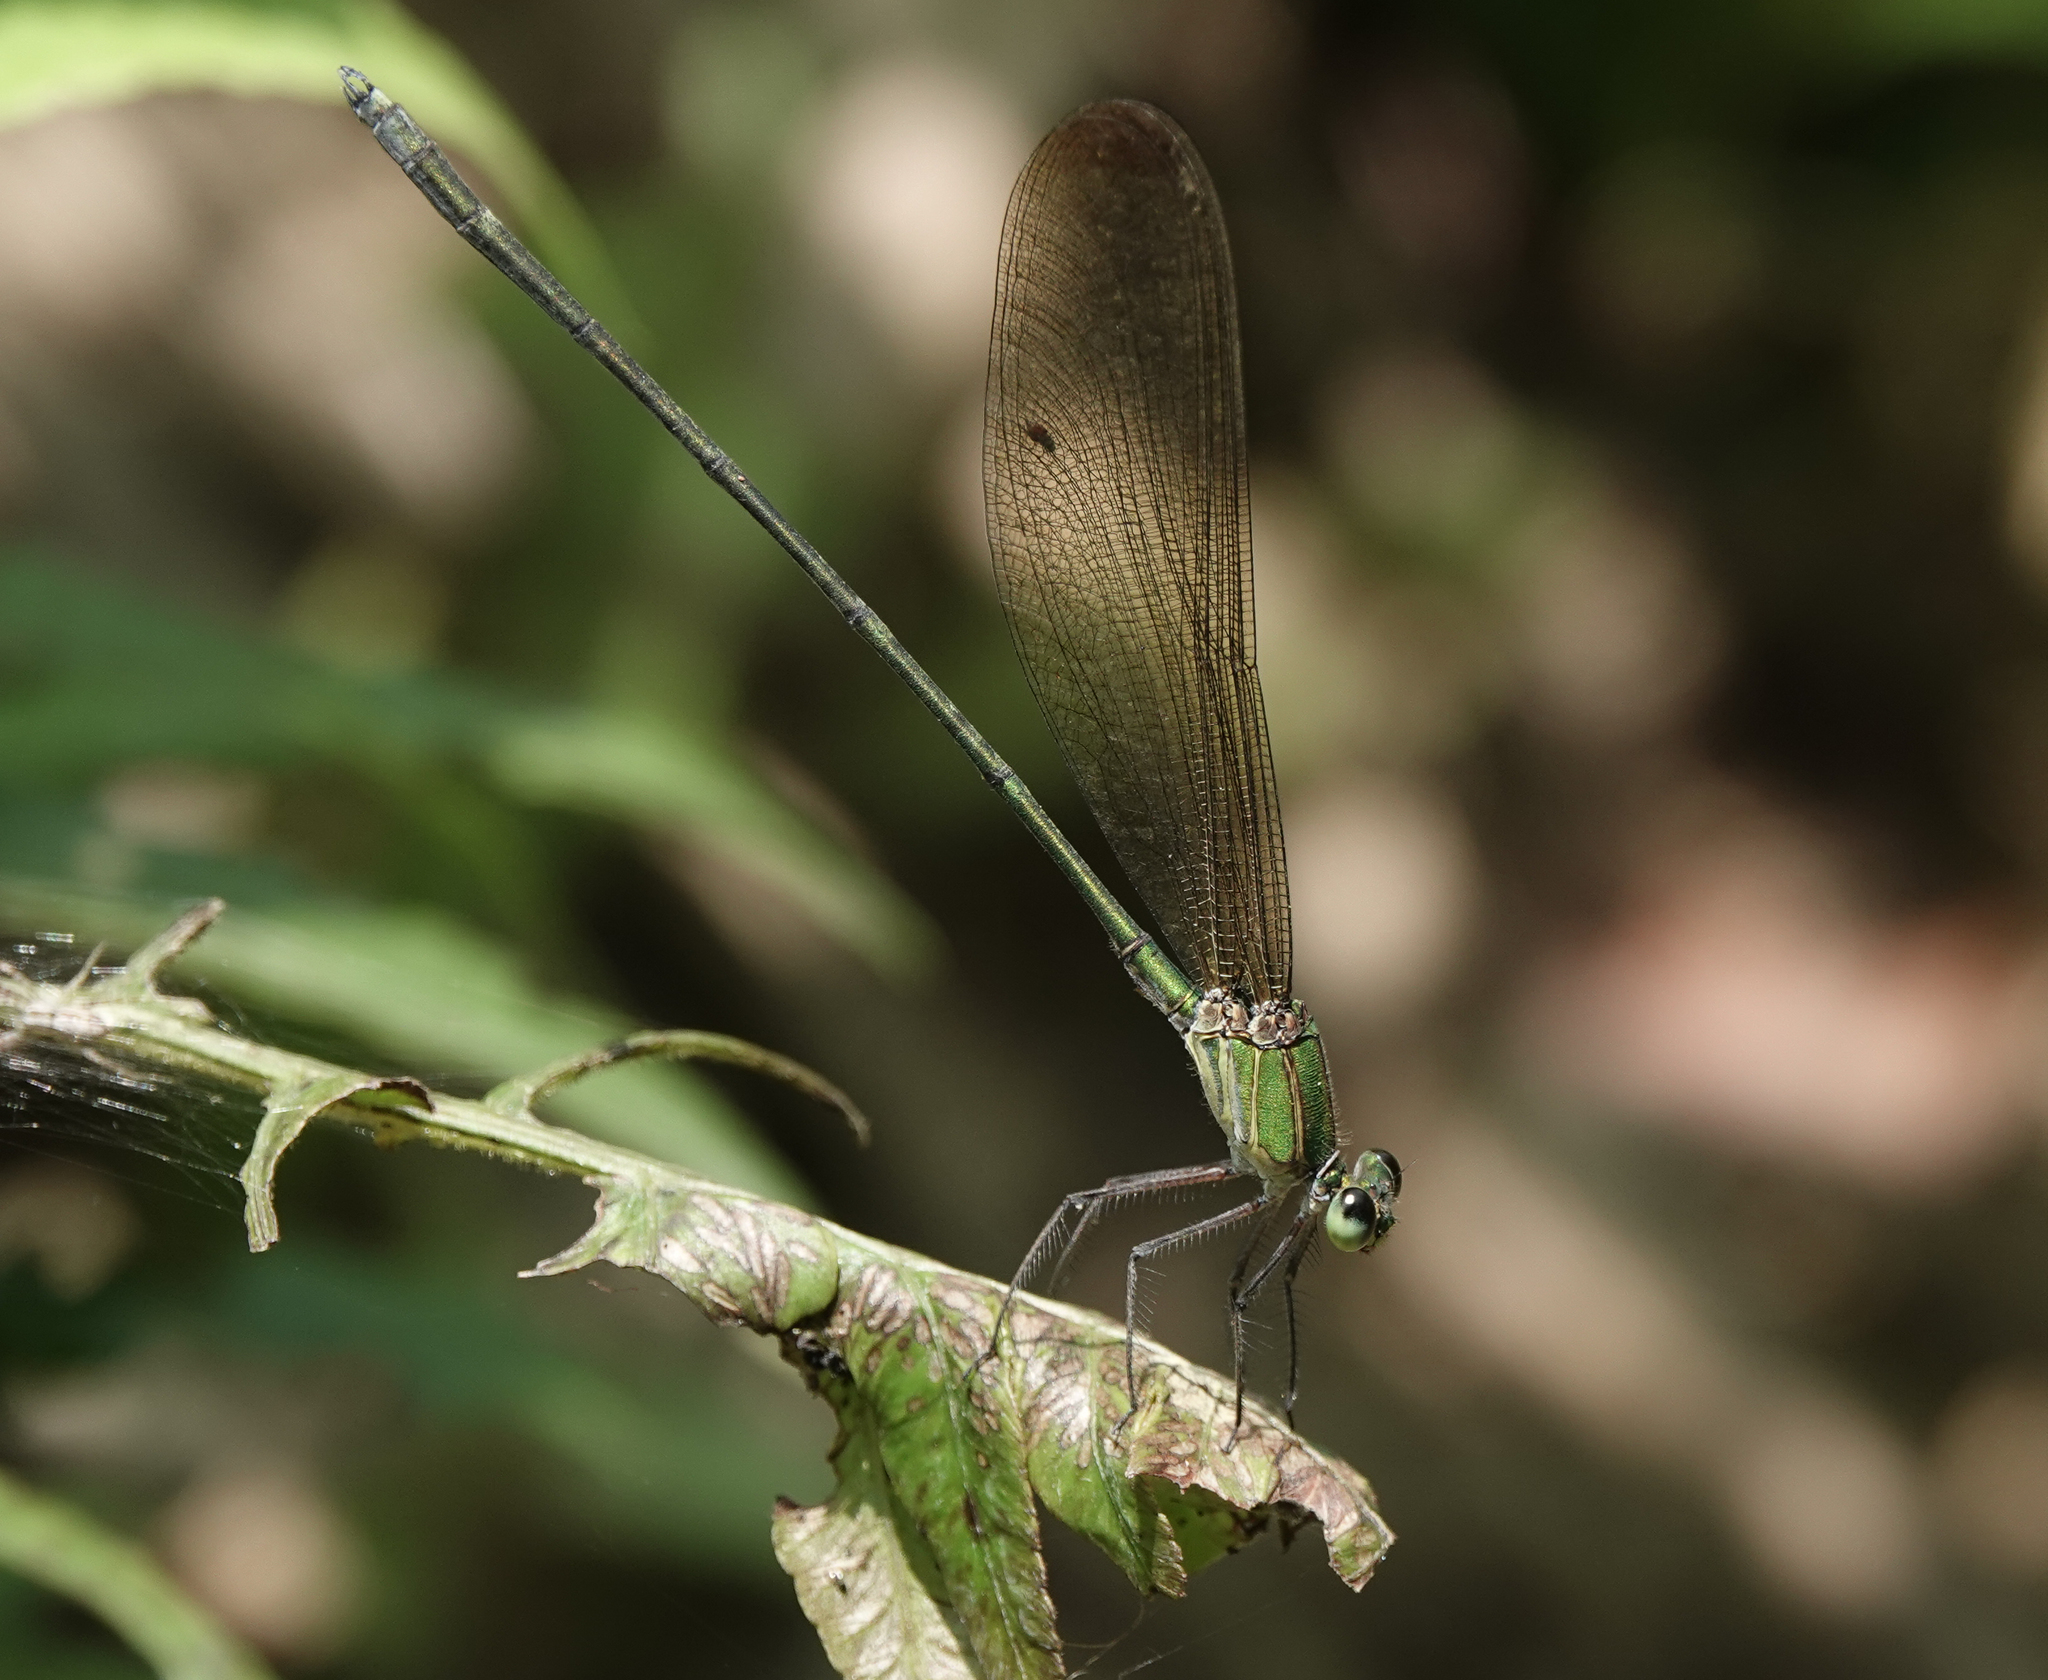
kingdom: Animalia
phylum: Arthropoda
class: Insecta
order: Odonata
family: Calopterygidae
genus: Vestalis
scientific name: Vestalis gracilis
